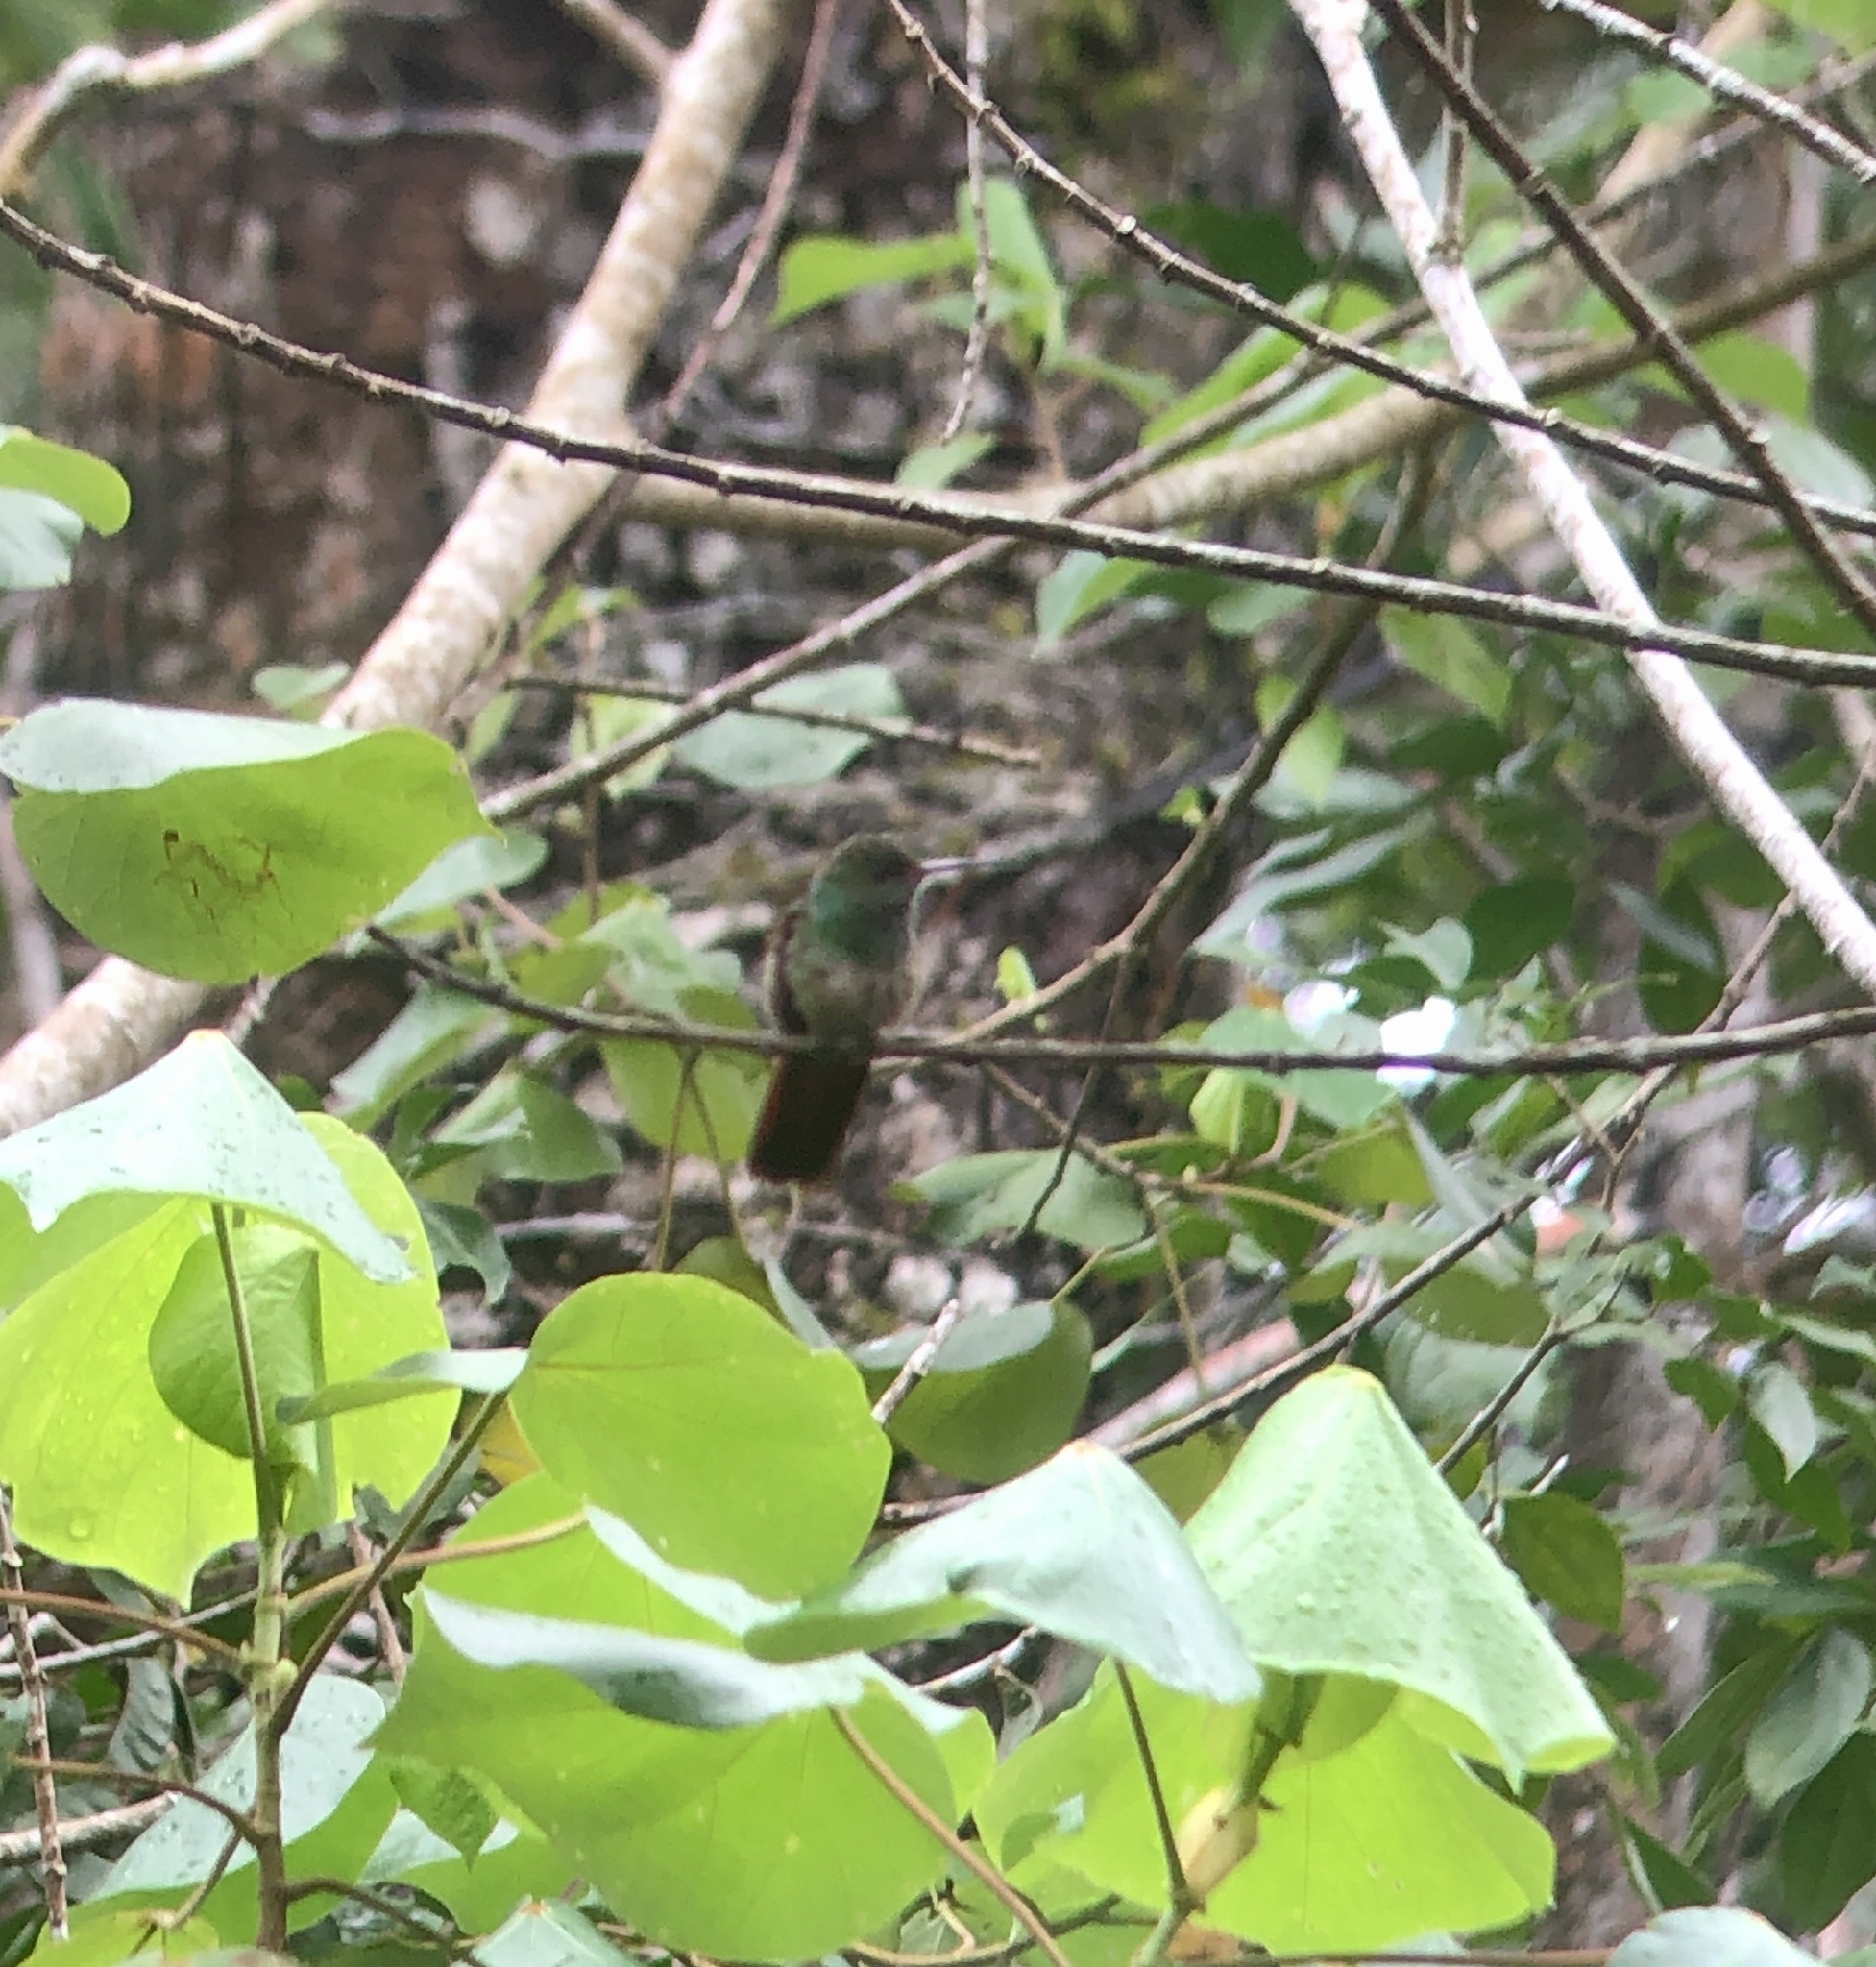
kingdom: Animalia
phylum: Chordata
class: Aves
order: Apodiformes
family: Trochilidae
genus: Amazilia
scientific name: Amazilia tzacatl
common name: Rufous-tailed hummingbird
